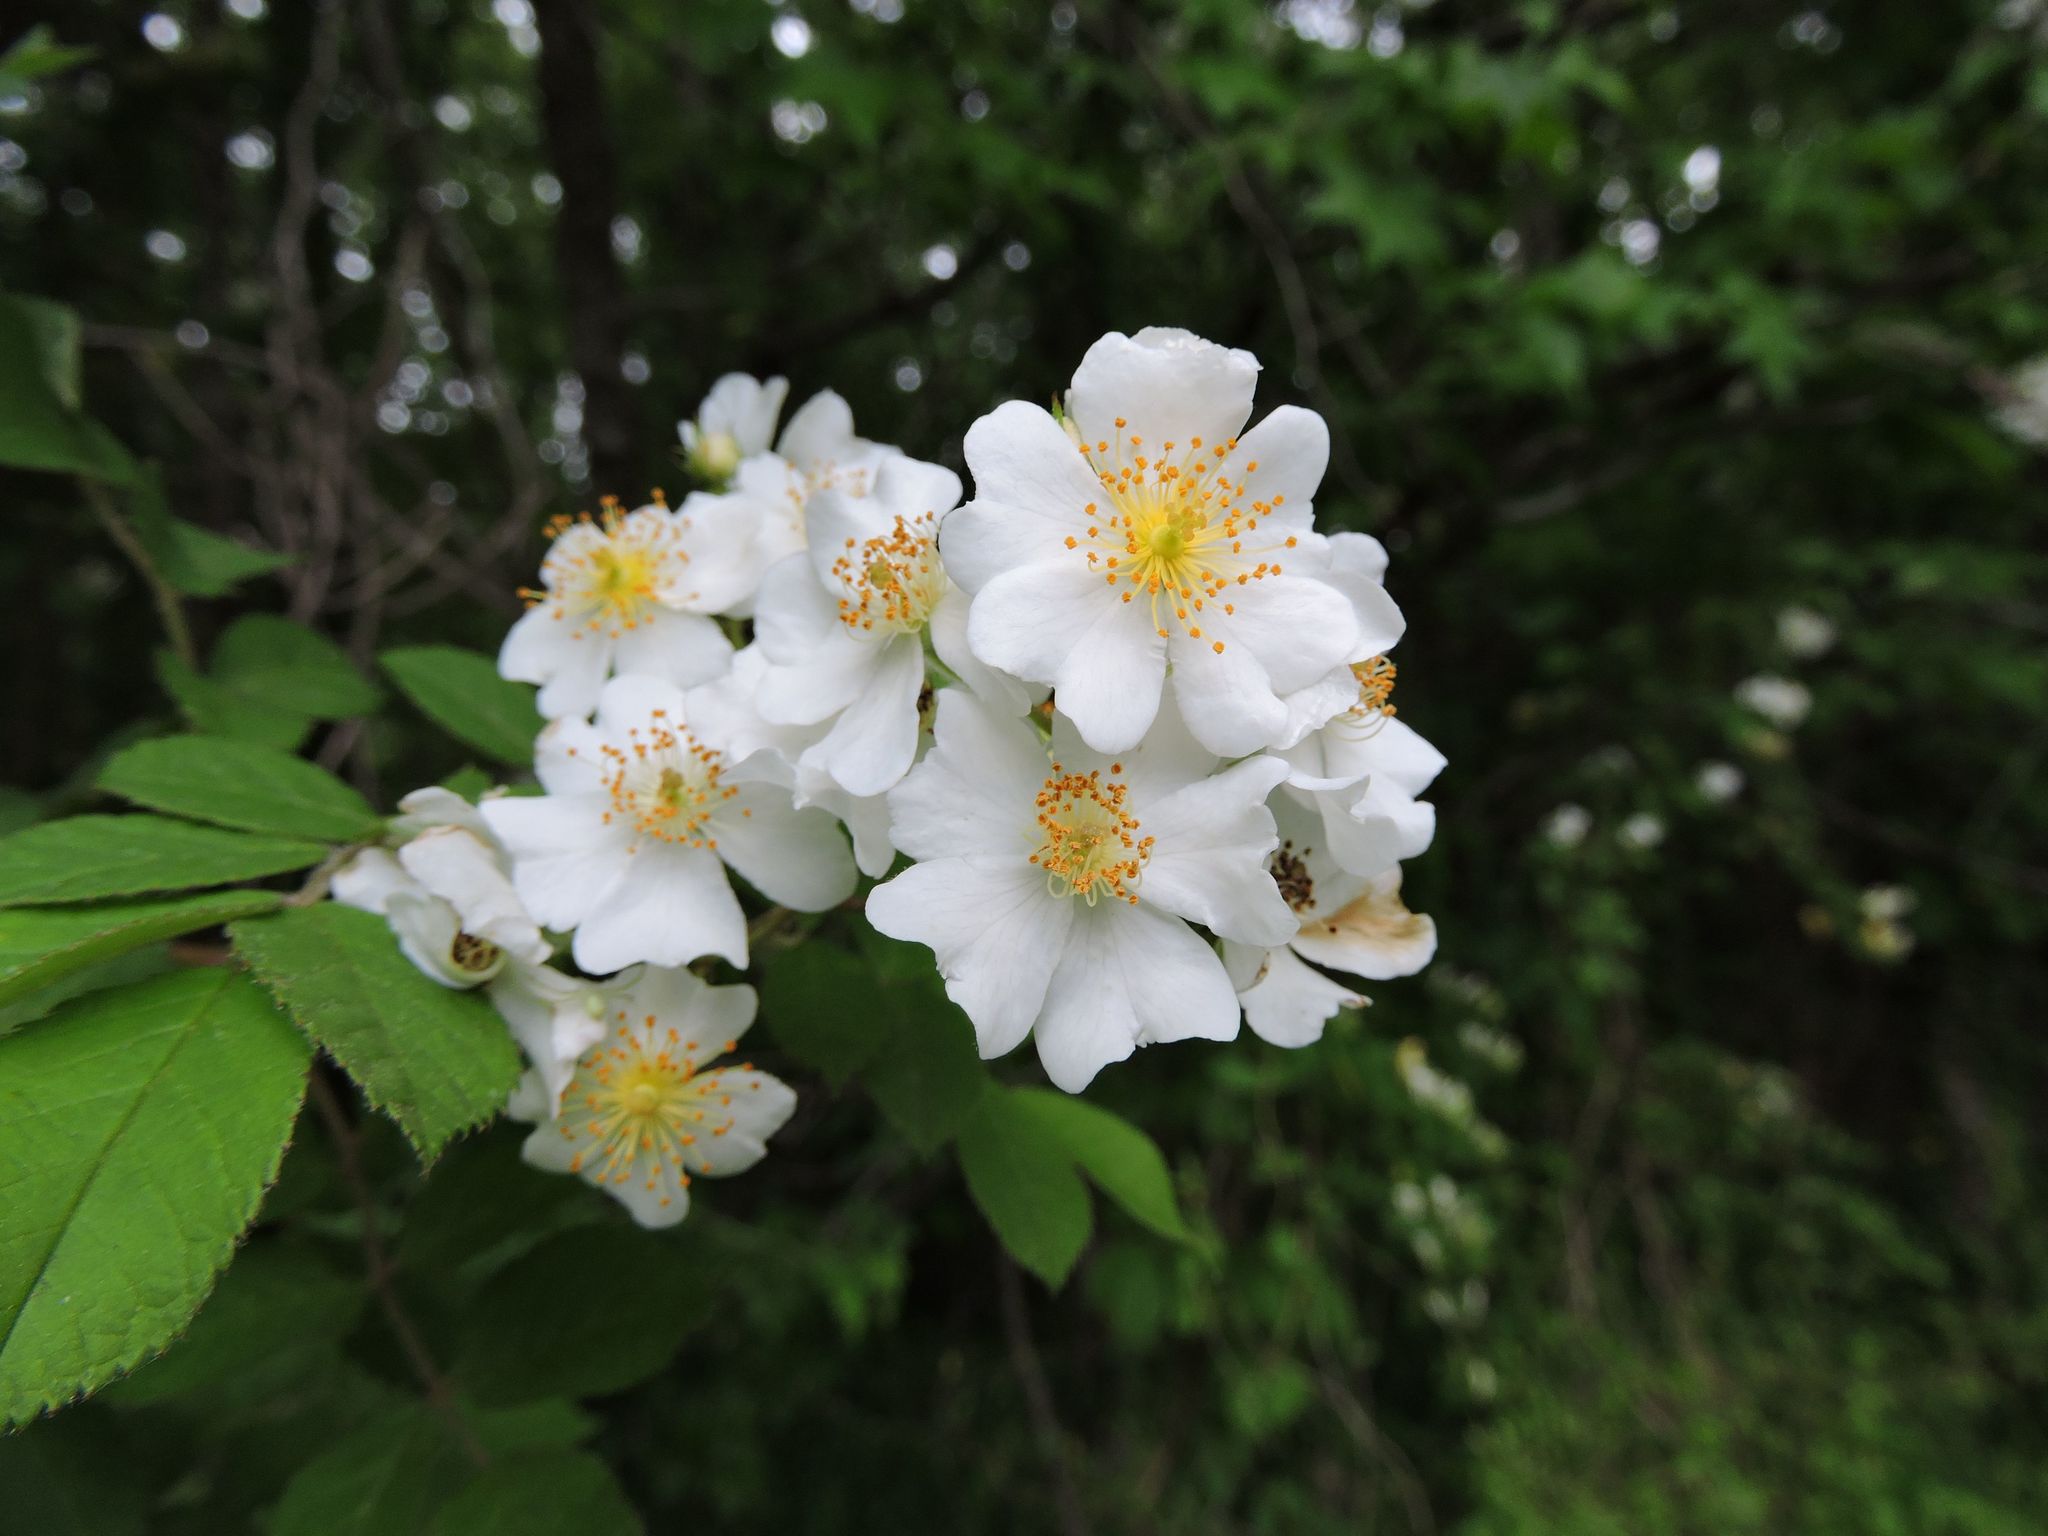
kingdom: Plantae
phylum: Tracheophyta
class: Magnoliopsida
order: Rosales
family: Rosaceae
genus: Rosa
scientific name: Rosa multiflora
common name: Multiflora rose
